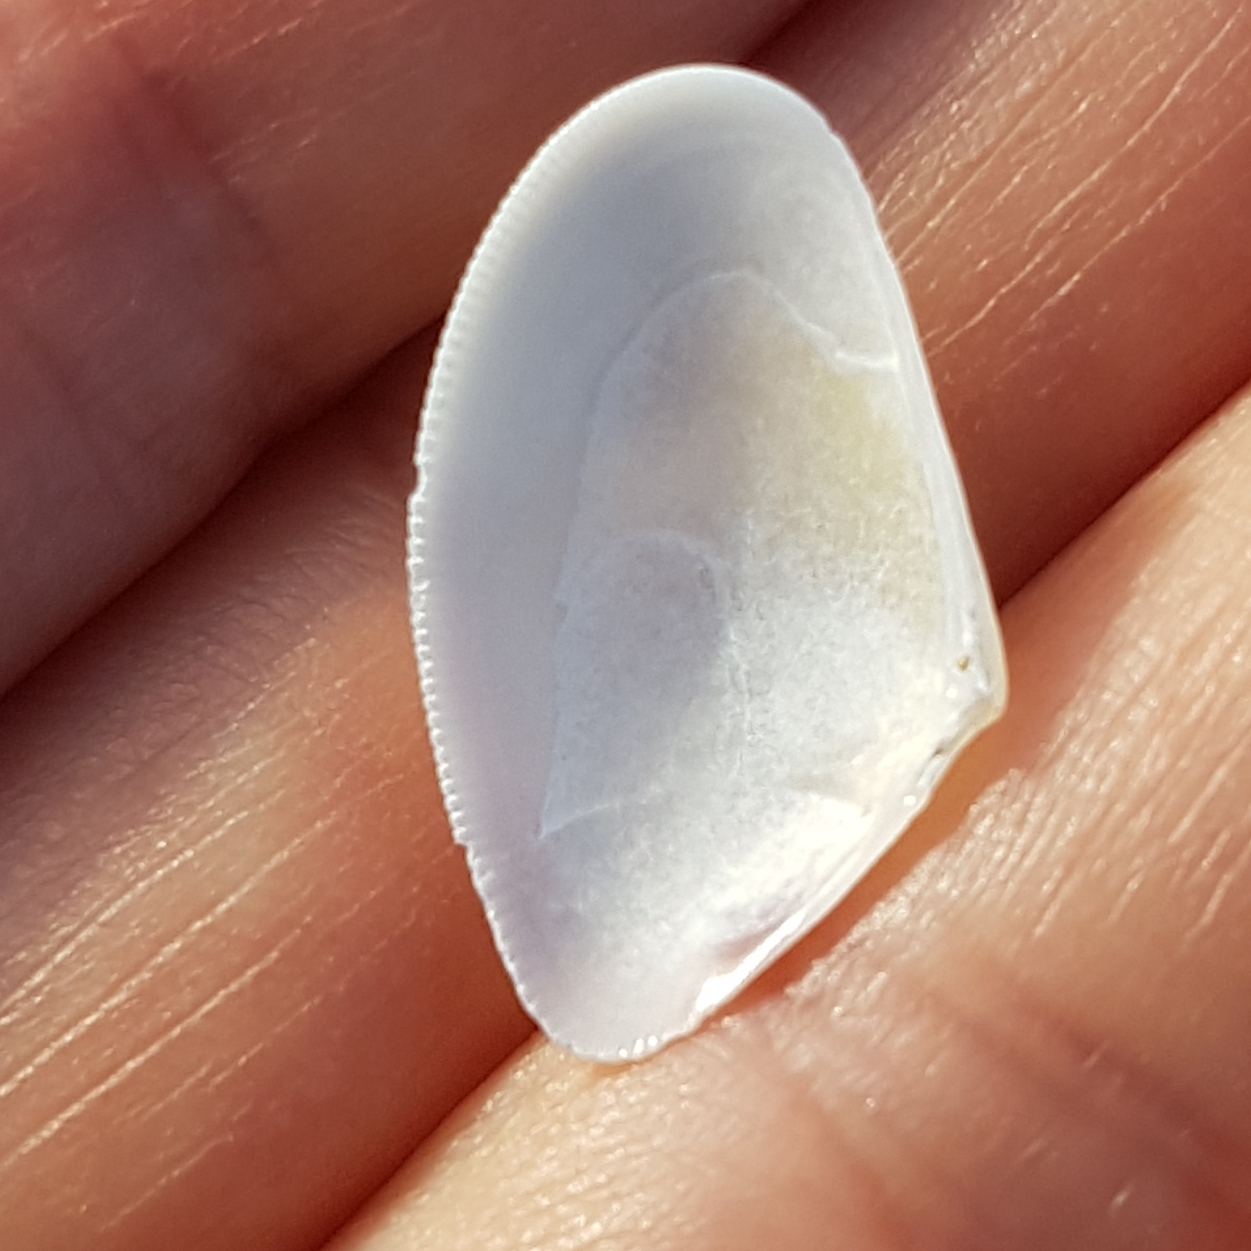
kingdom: Animalia
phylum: Mollusca
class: Bivalvia
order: Cardiida
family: Donacidae
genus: Donax
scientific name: Donax semistriatus
